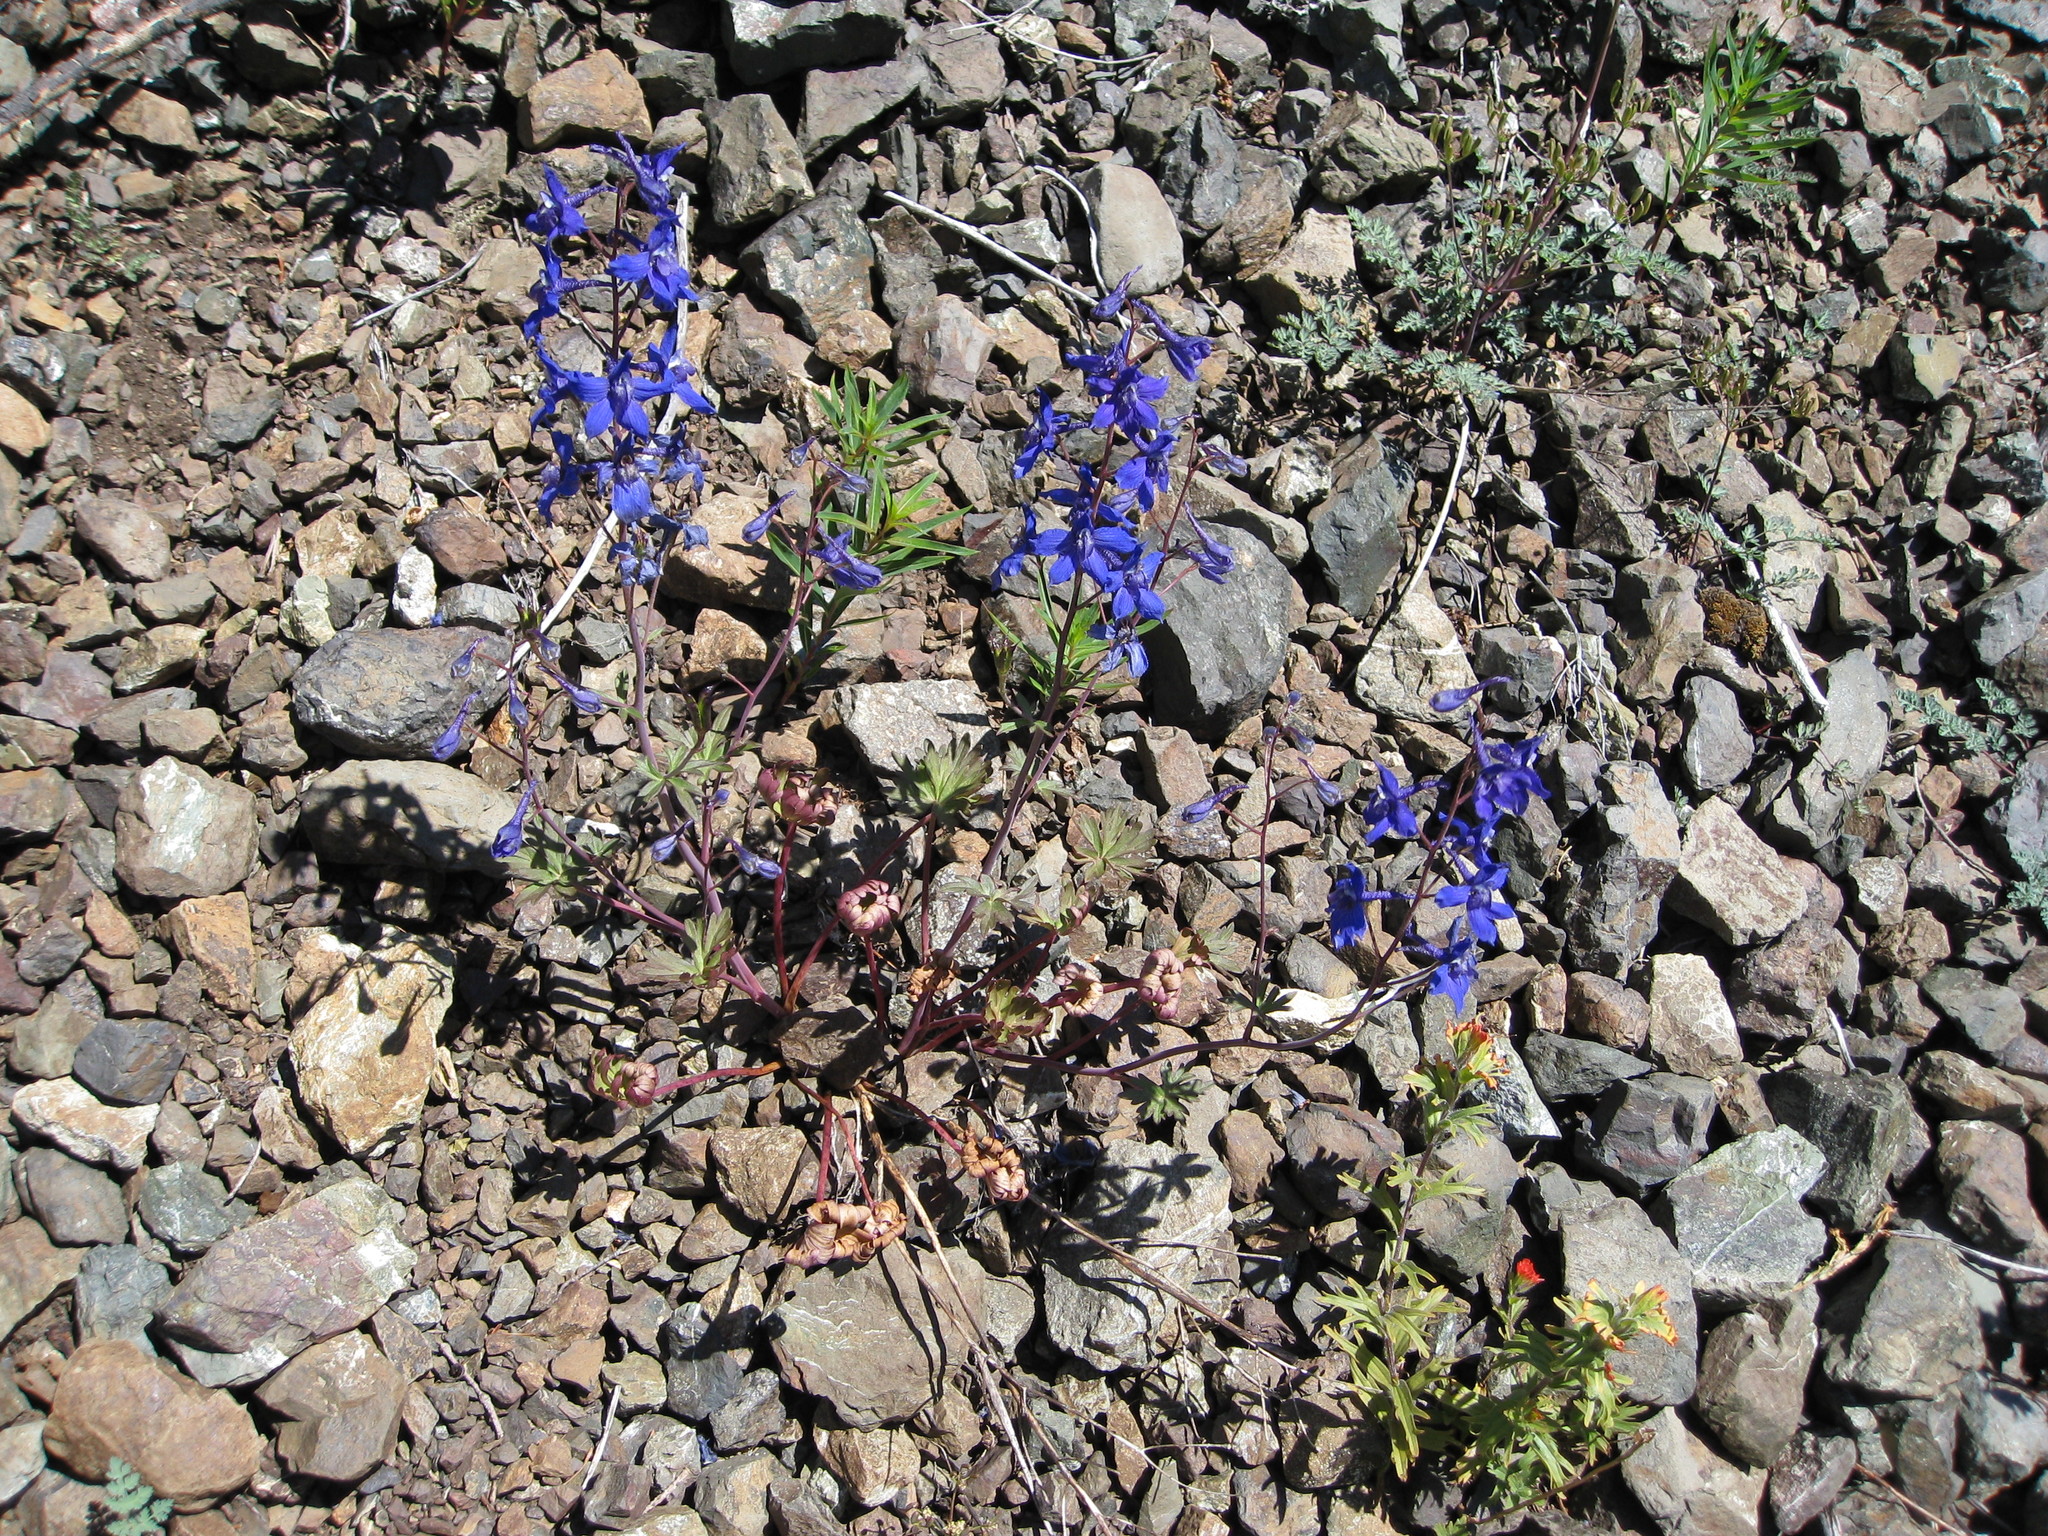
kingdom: Plantae
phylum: Tracheophyta
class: Magnoliopsida
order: Ranunculales
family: Ranunculaceae
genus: Delphinium
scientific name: Delphinium glareosum
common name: Olympic mountain larkspur
